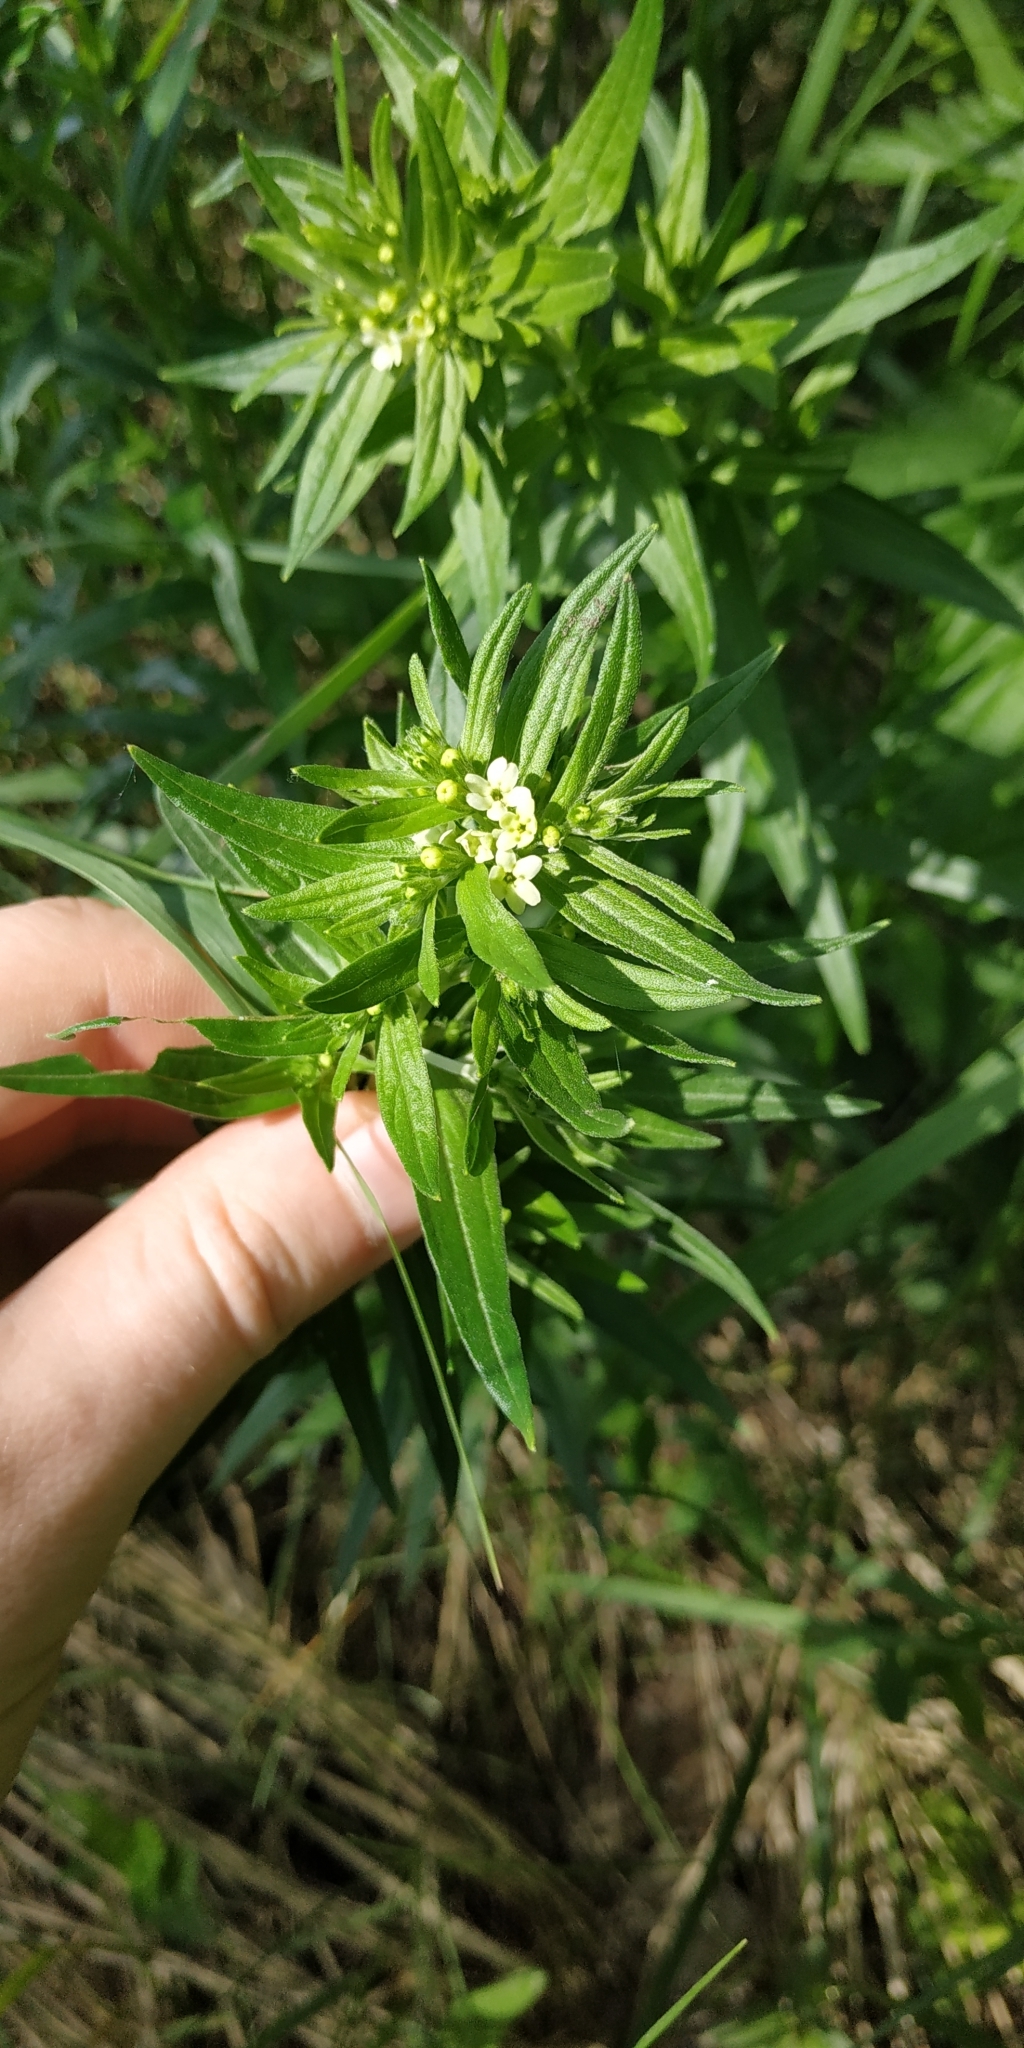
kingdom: Plantae
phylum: Tracheophyta
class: Magnoliopsida
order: Boraginales
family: Boraginaceae
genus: Lithospermum
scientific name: Lithospermum officinale
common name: Common gromwell
